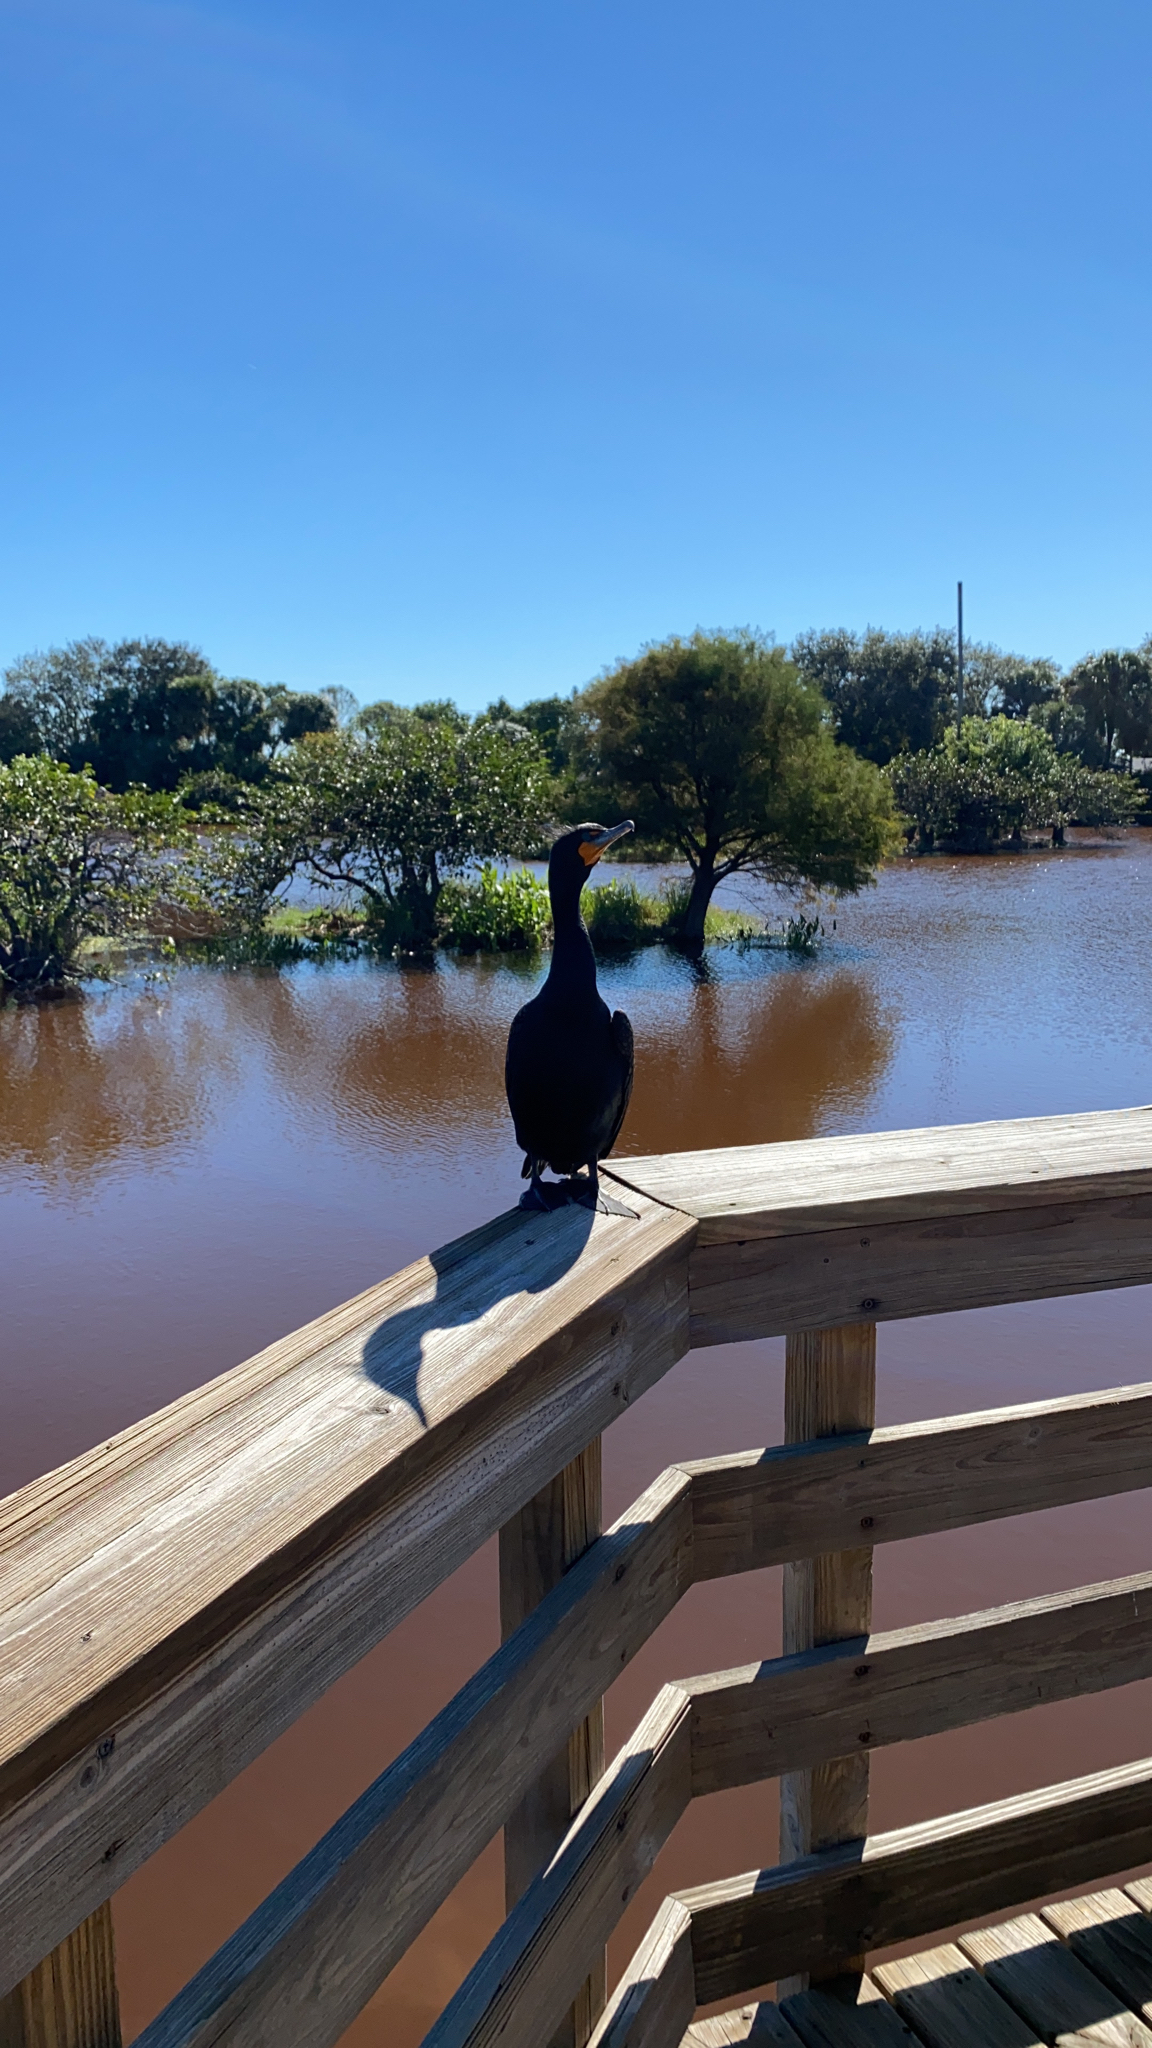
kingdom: Animalia
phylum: Chordata
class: Aves
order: Suliformes
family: Phalacrocoracidae
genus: Phalacrocorax
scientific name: Phalacrocorax auritus
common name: Double-crested cormorant
